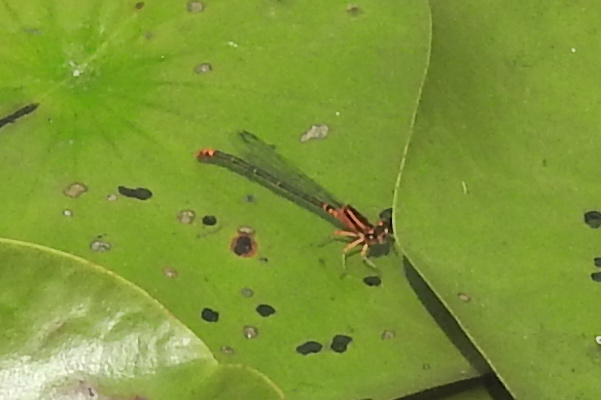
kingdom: Animalia
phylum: Arthropoda
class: Insecta
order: Odonata
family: Coenagrionidae
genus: Ischnura
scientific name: Ischnura kellicotti
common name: Lilypad forktail
